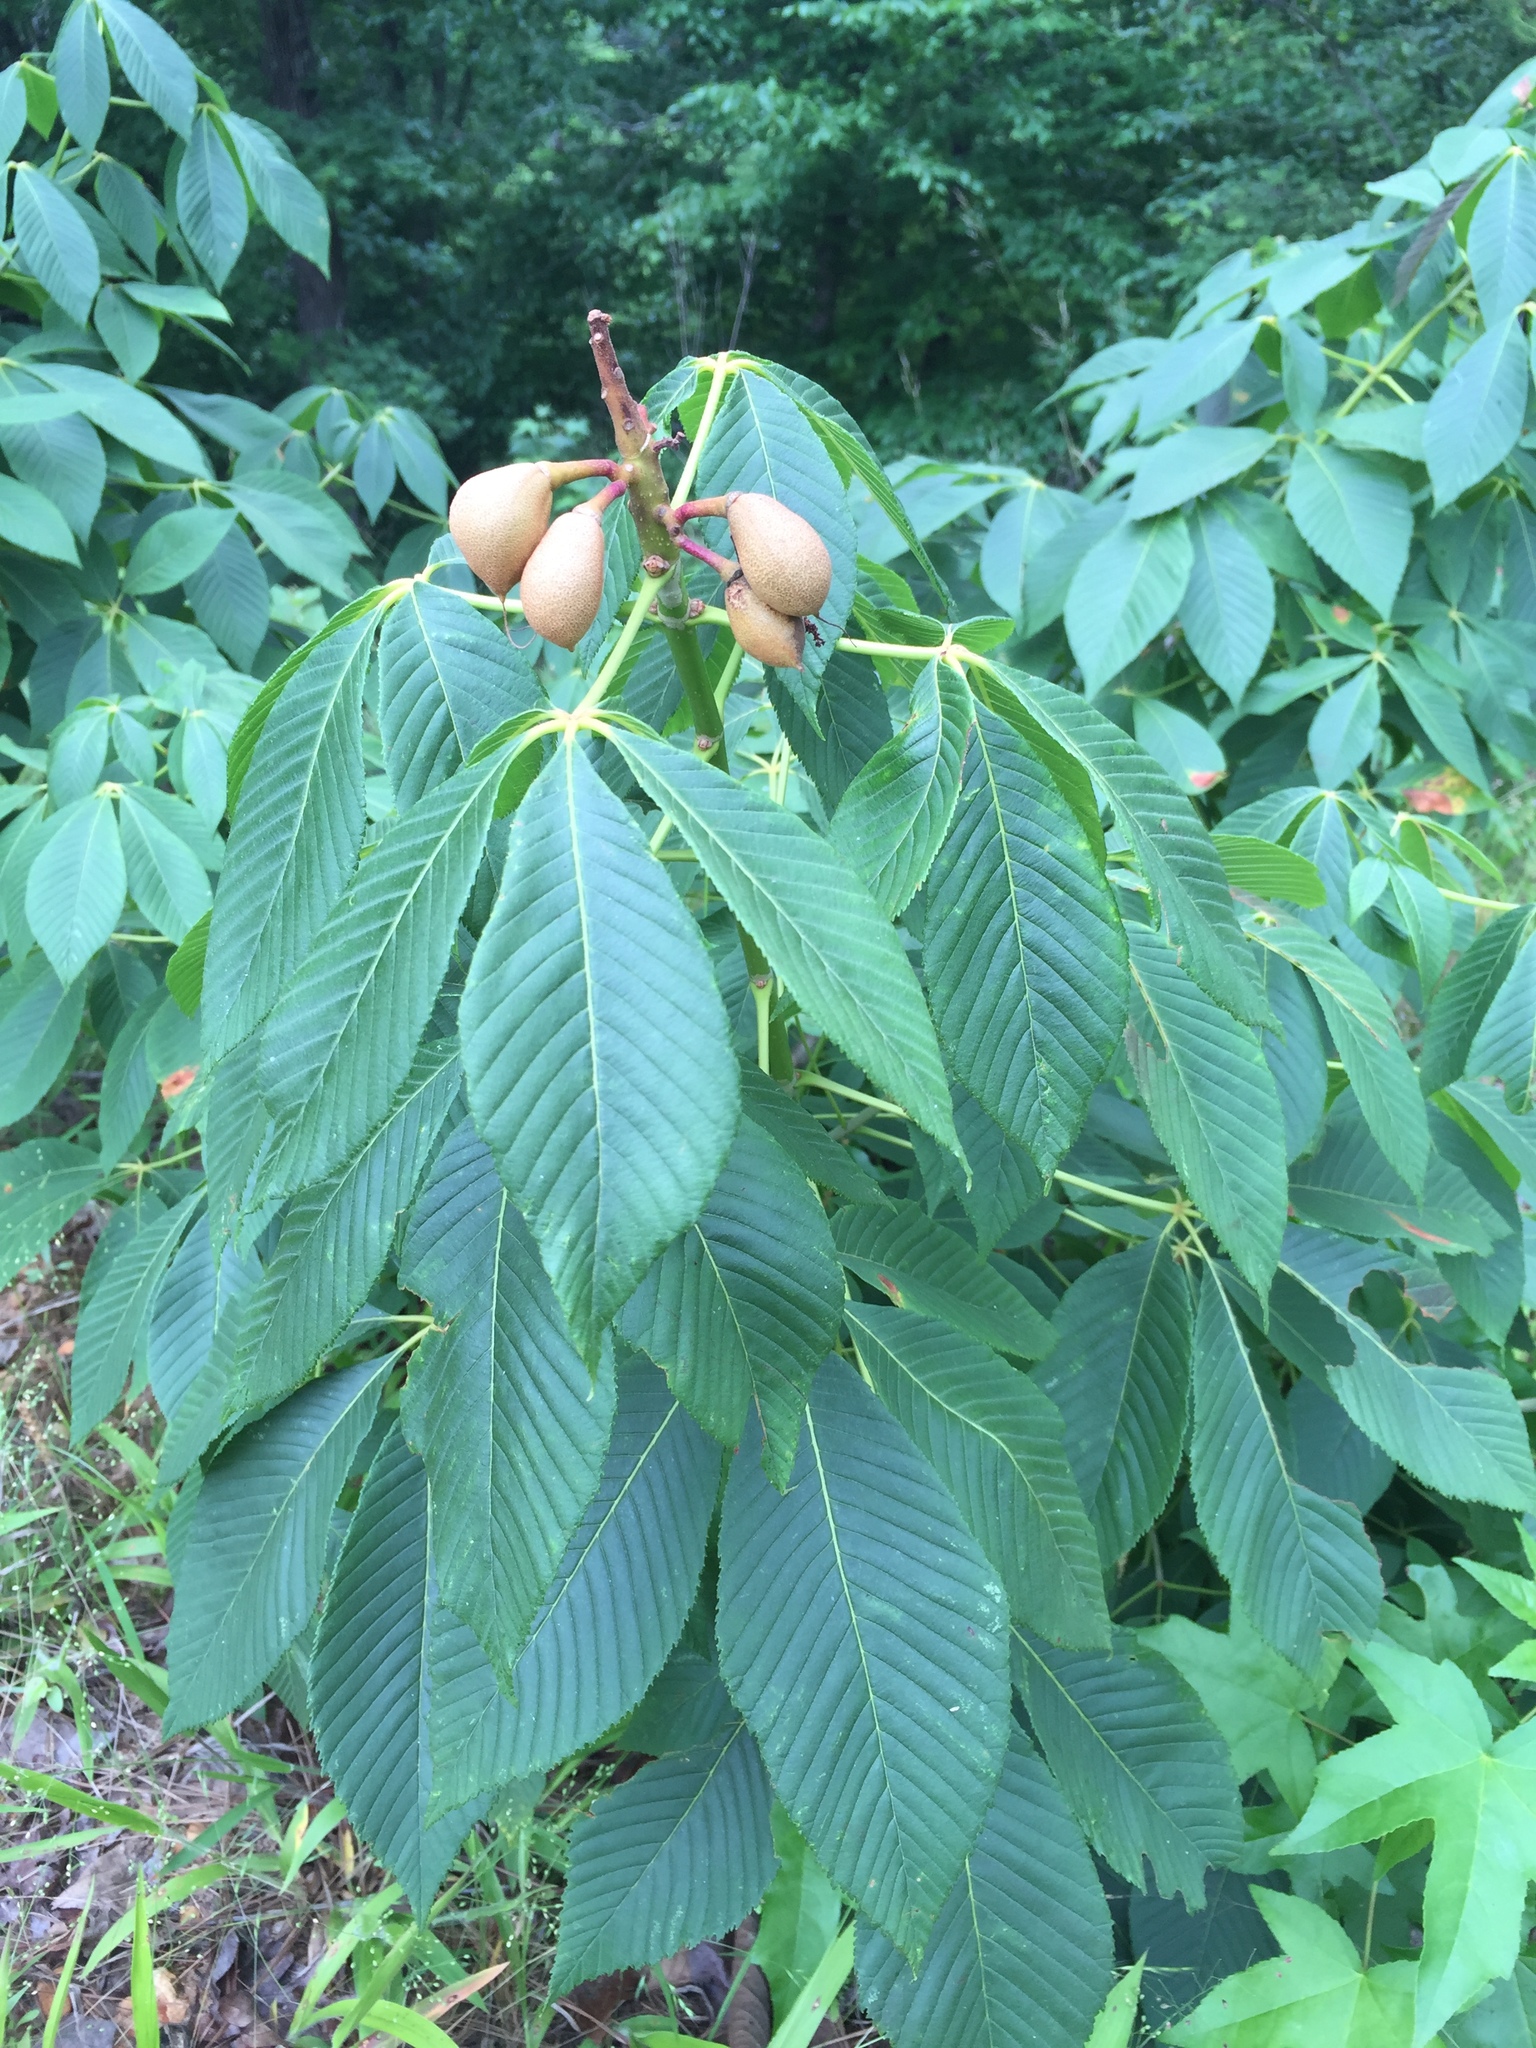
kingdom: Plantae
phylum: Tracheophyta
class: Magnoliopsida
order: Sapindales
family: Sapindaceae
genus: Aesculus
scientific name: Aesculus pavia
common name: Red buckeye
